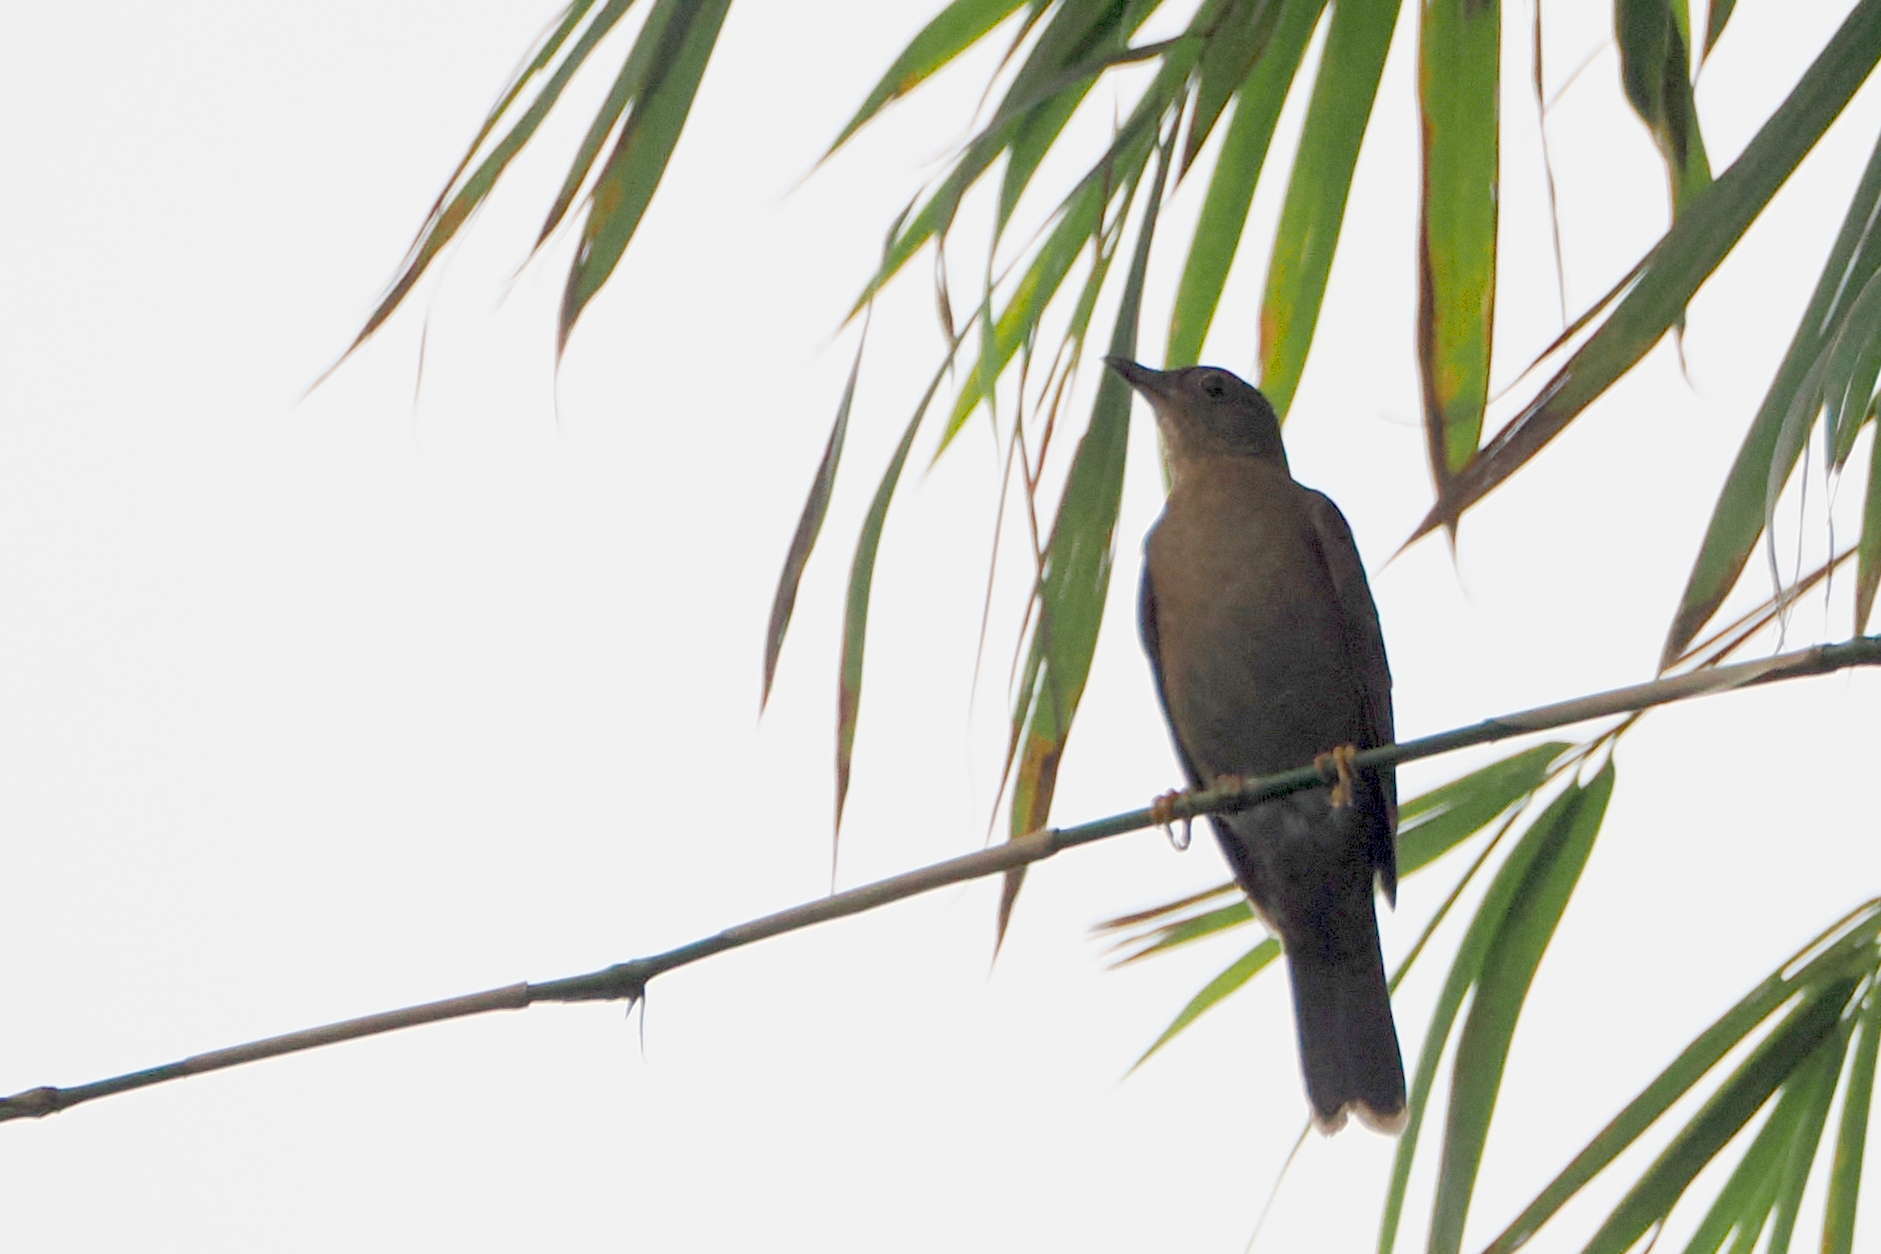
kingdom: Animalia
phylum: Chordata
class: Aves
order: Passeriformes
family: Turdidae
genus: Turdus
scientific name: Turdus fumigatus
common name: Cocoa thrush
